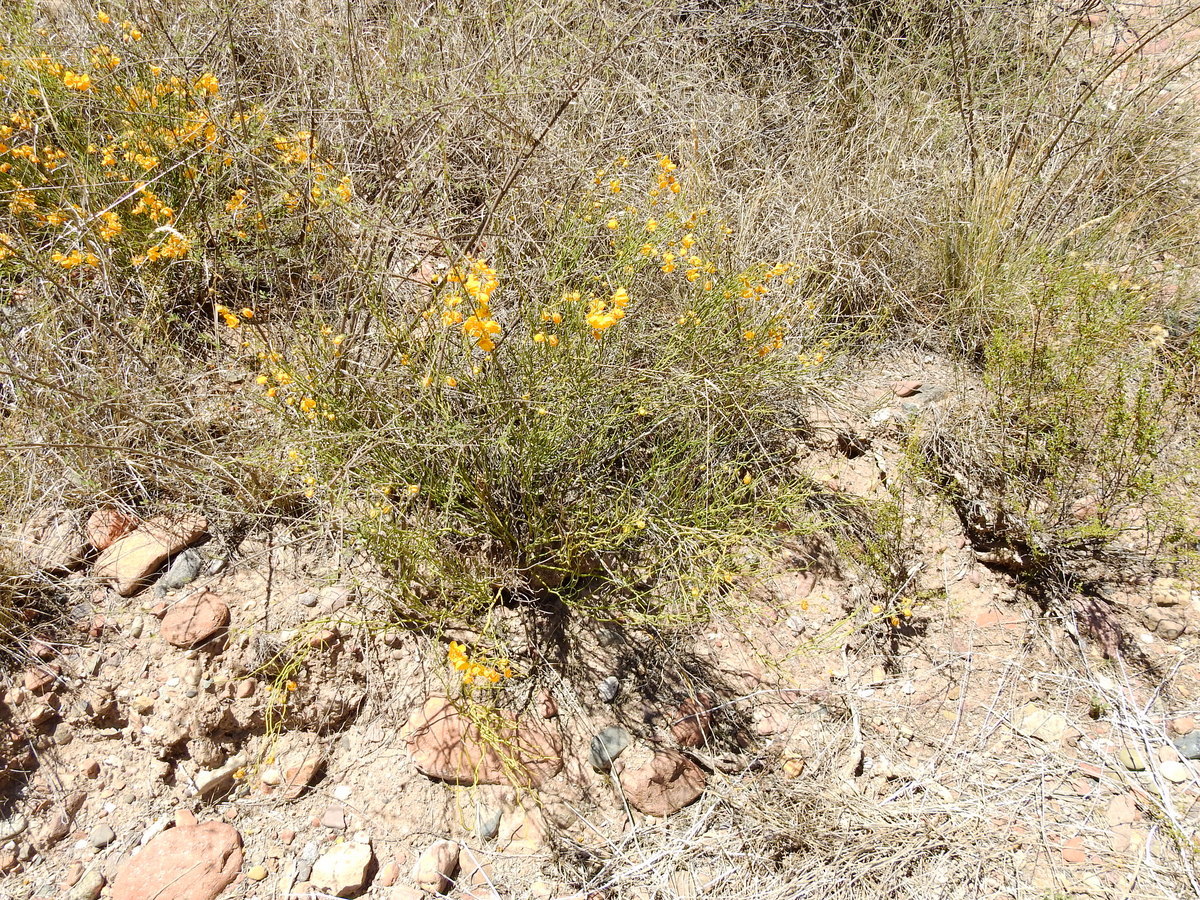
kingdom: Plantae
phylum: Tracheophyta
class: Magnoliopsida
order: Fabales
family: Fabaceae
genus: Senna
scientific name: Senna aphylla
